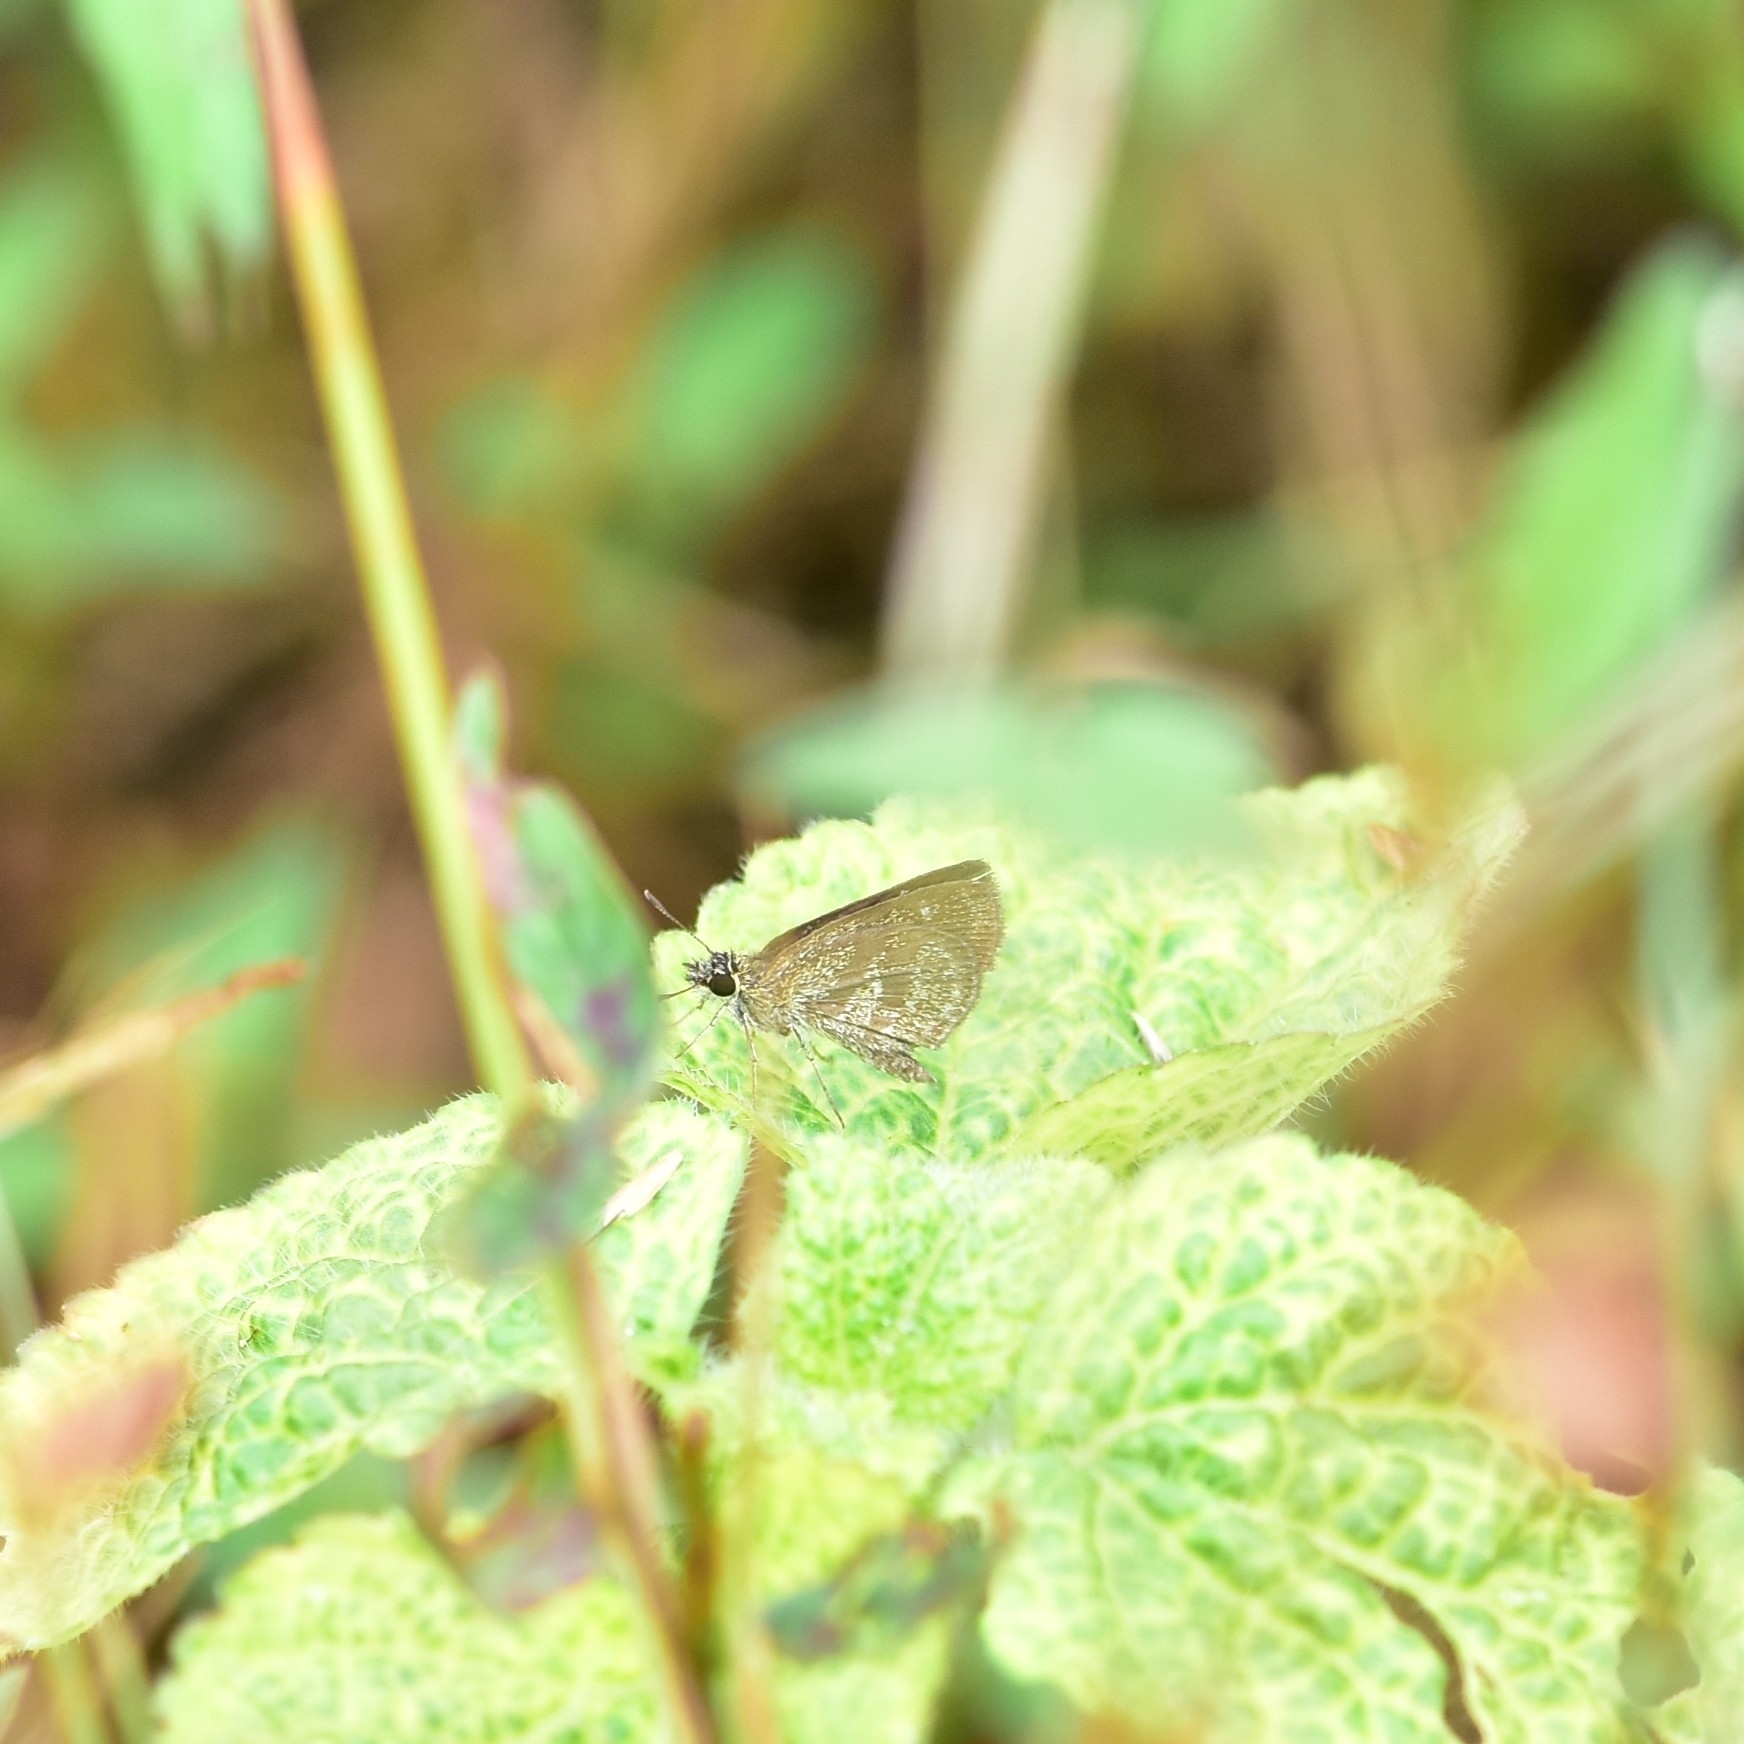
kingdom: Animalia
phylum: Arthropoda
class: Insecta
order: Lepidoptera
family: Hesperiidae
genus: Aeromachus
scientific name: Aeromachus pygmaeus
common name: Pygmy scrub hopper
